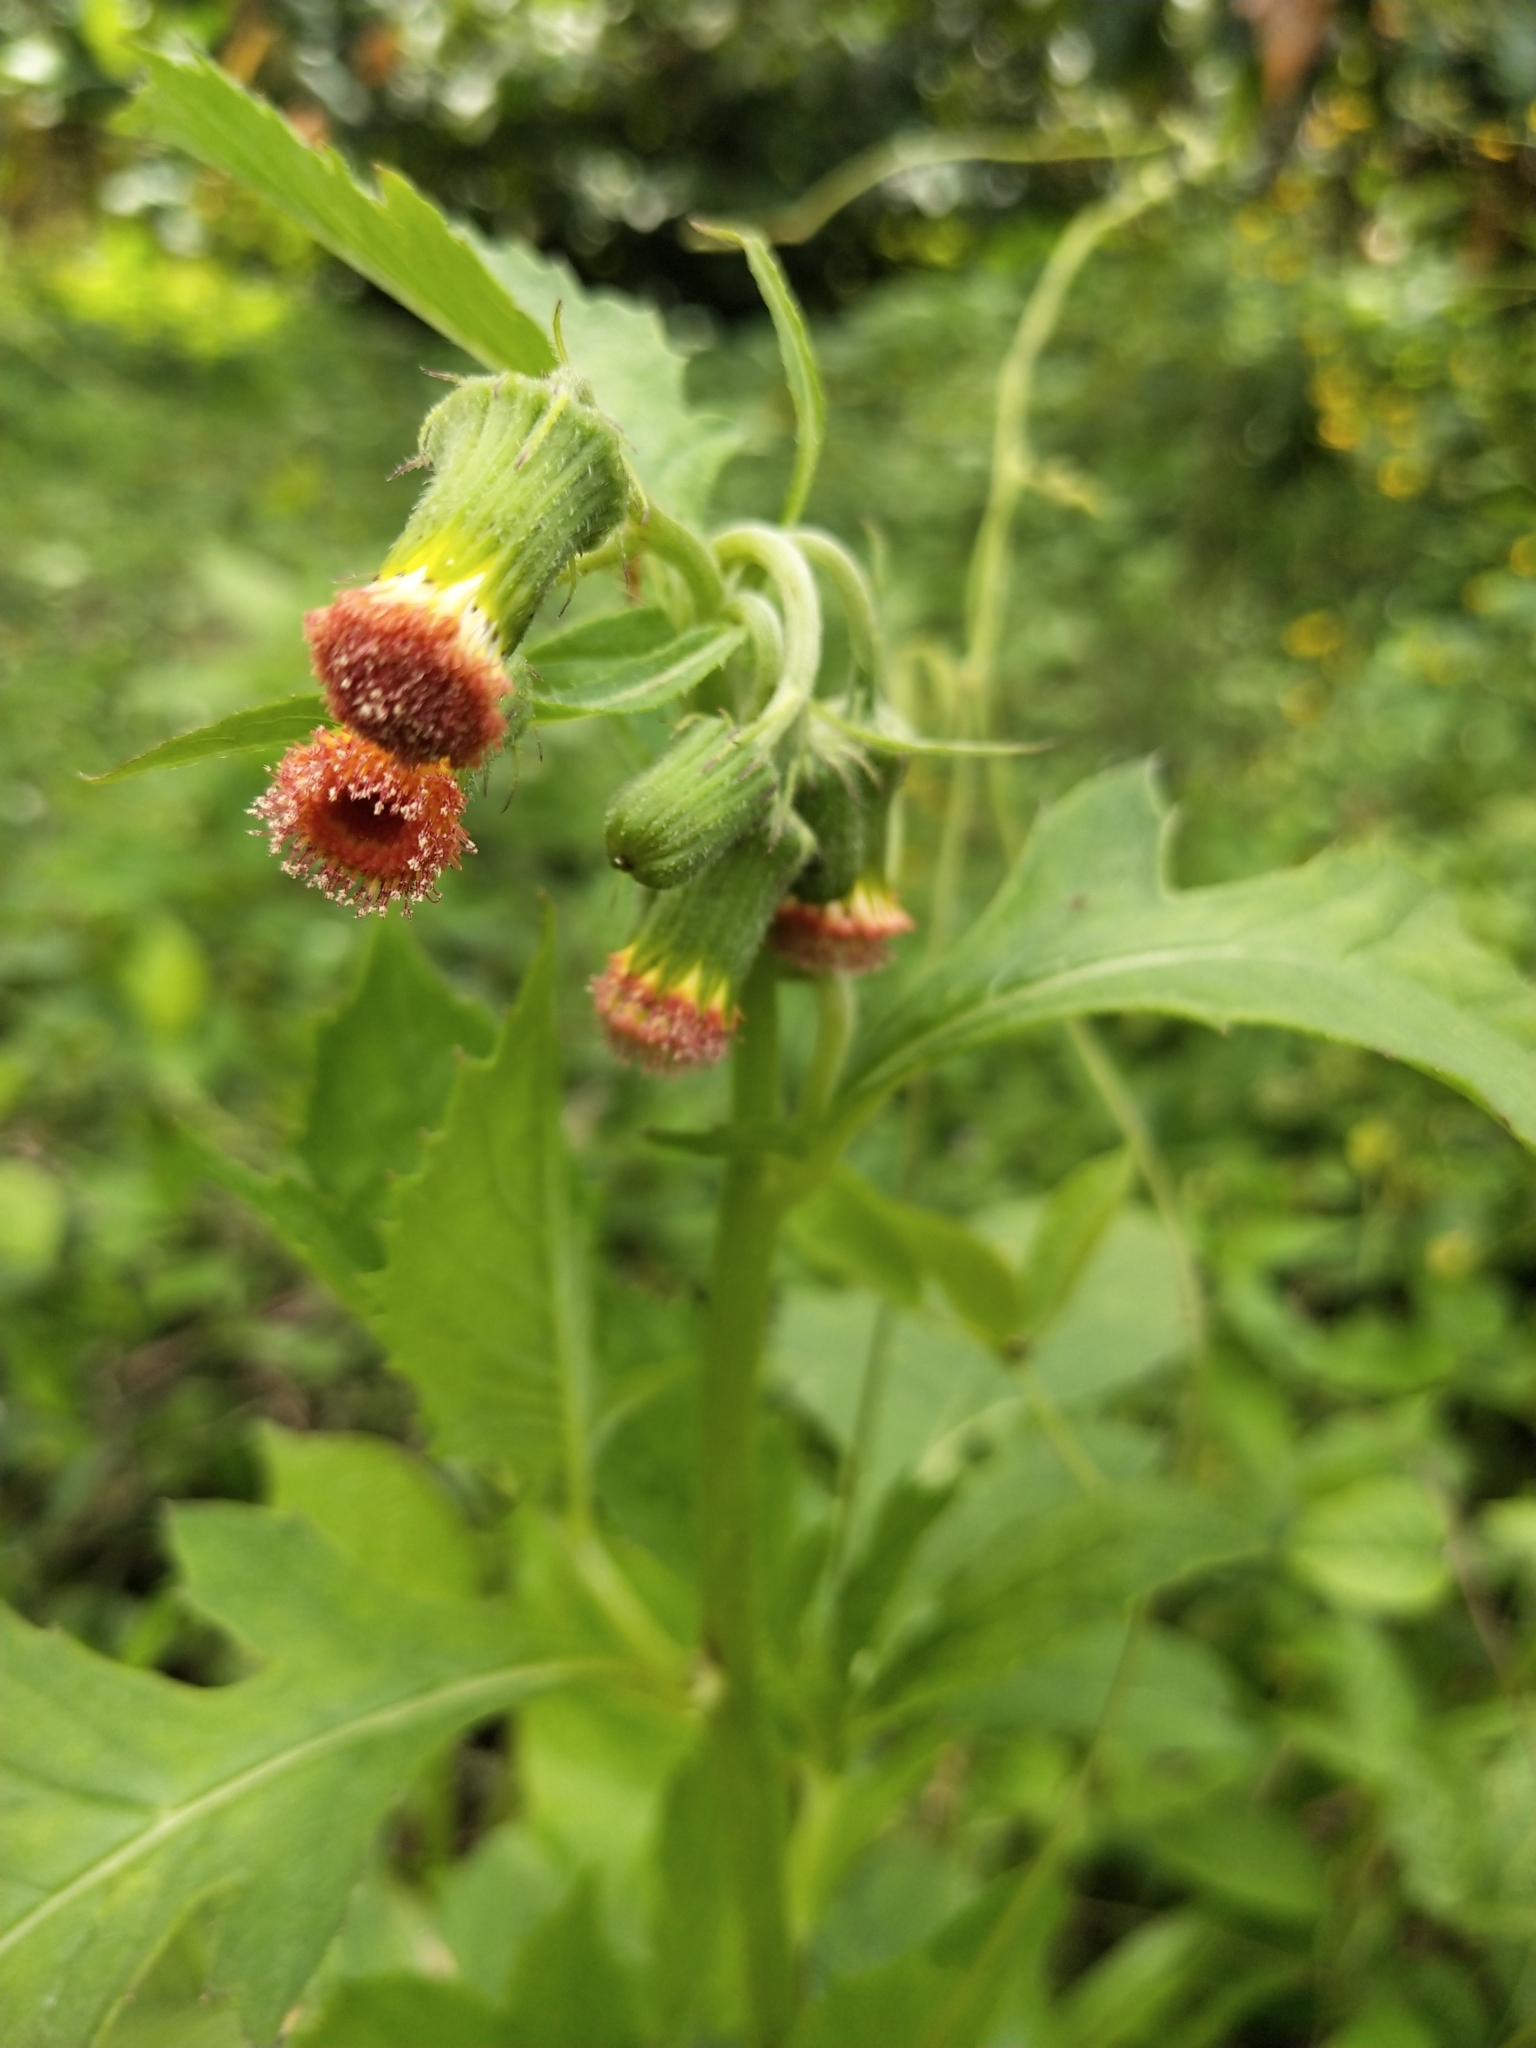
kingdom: Plantae
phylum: Tracheophyta
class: Magnoliopsida
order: Asterales
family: Asteraceae
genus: Crassocephalum
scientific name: Crassocephalum crepidioides
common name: Redflower ragleaf
